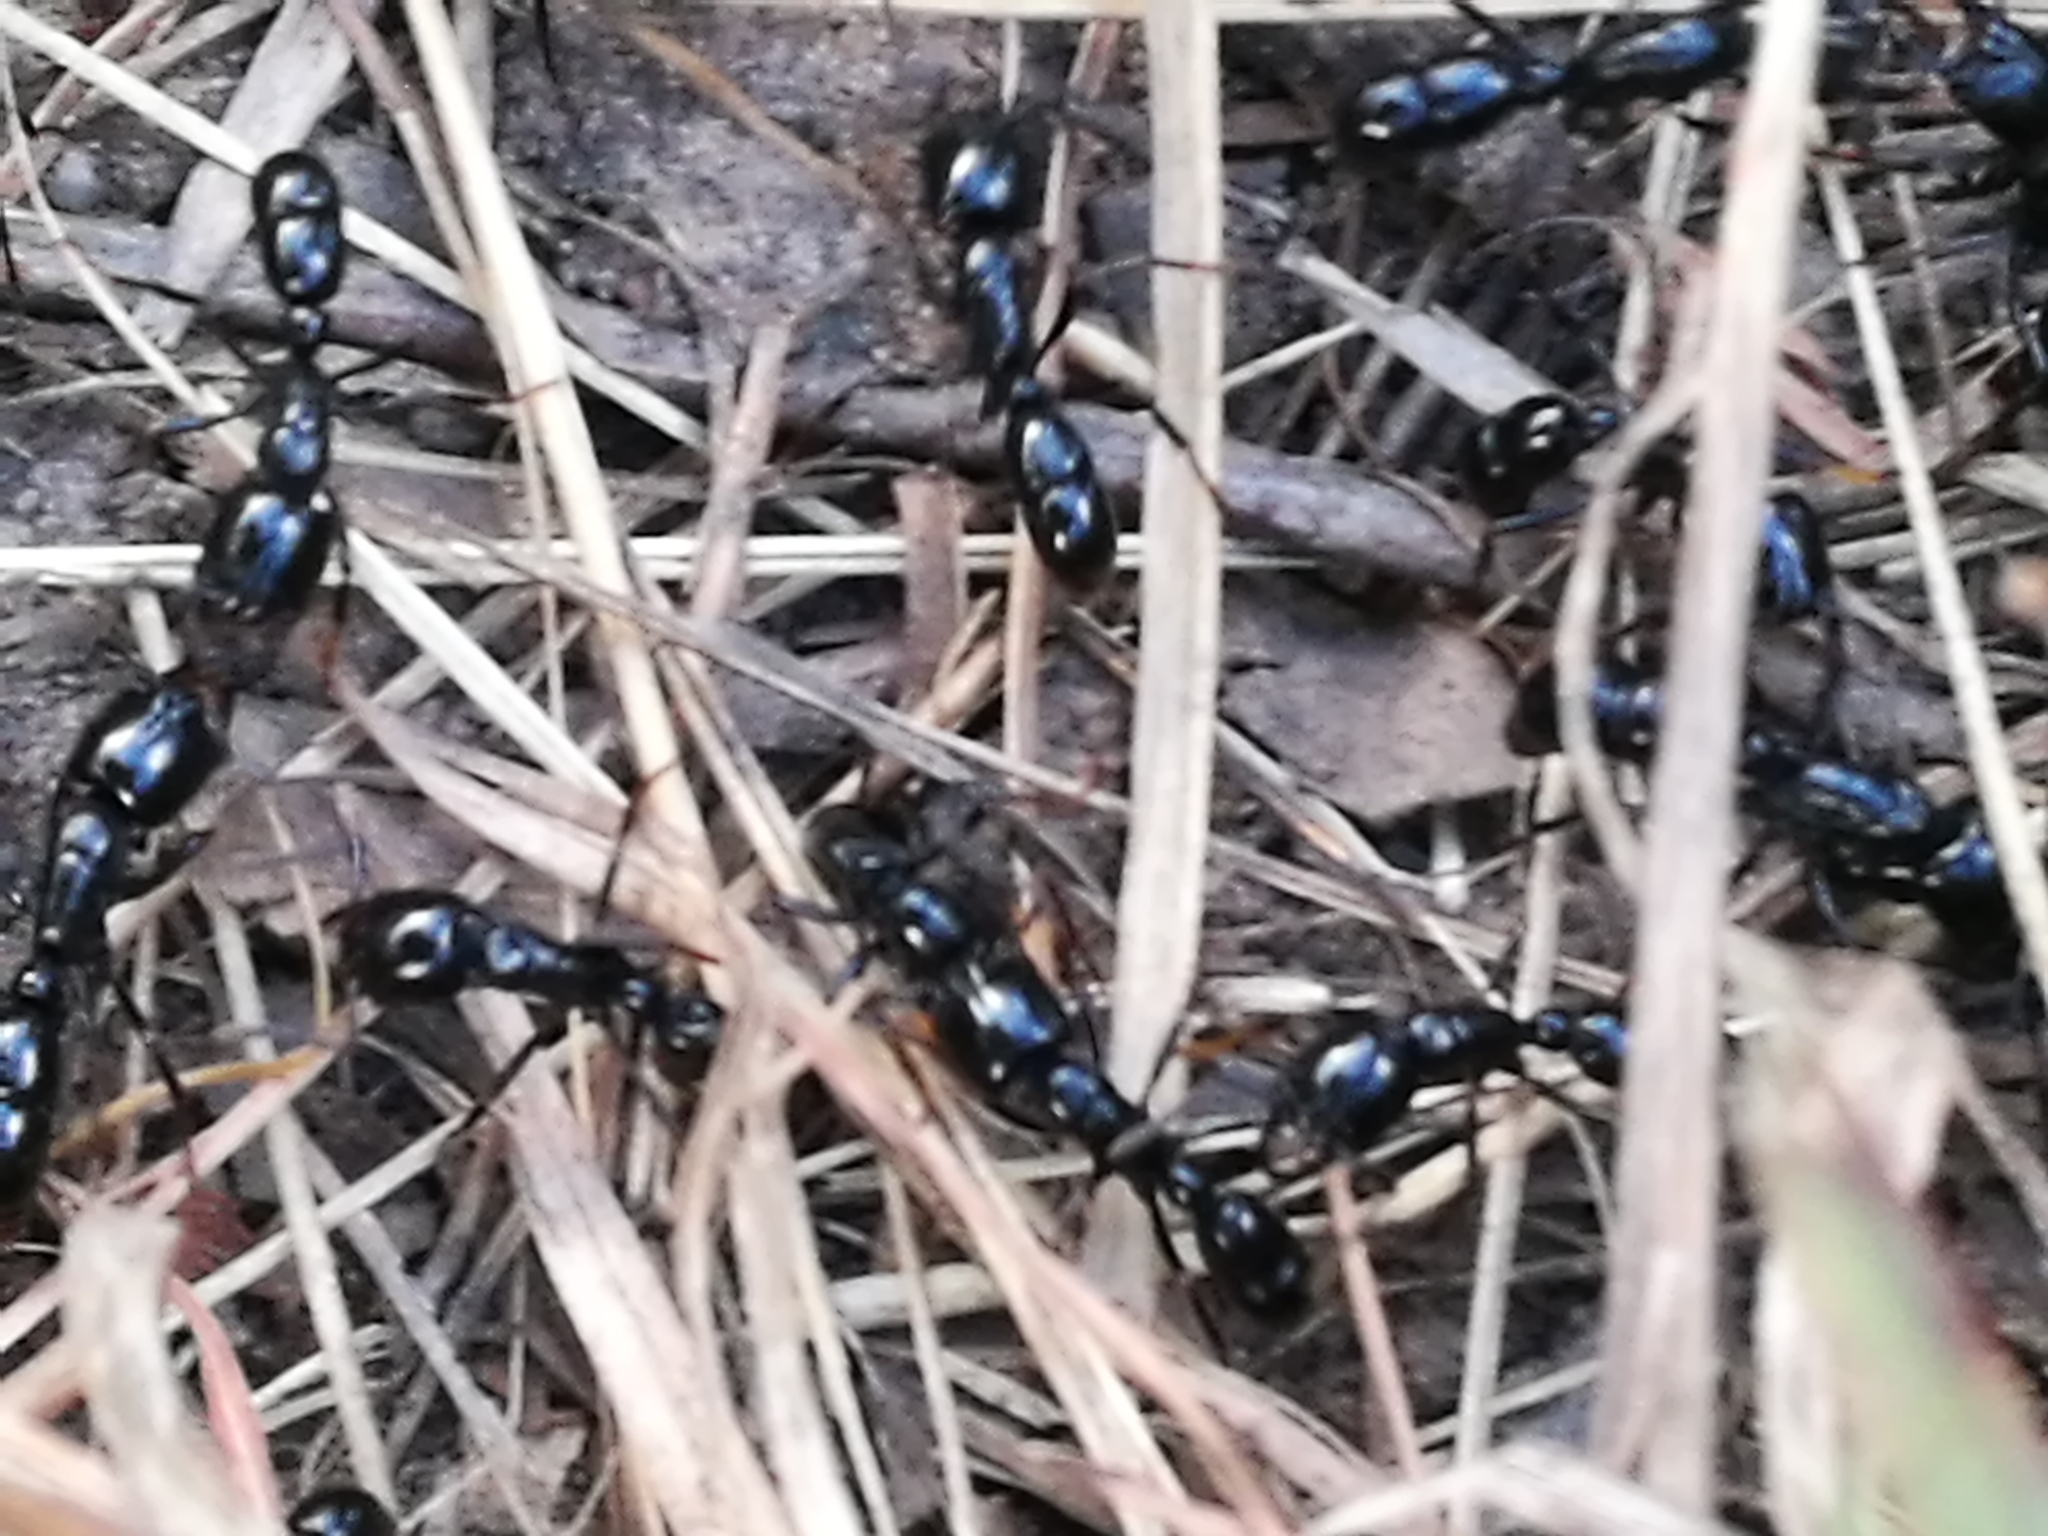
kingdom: Animalia
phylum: Arthropoda
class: Insecta
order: Hymenoptera
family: Formicidae
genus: Plectroctena
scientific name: Plectroctena mandibularis
